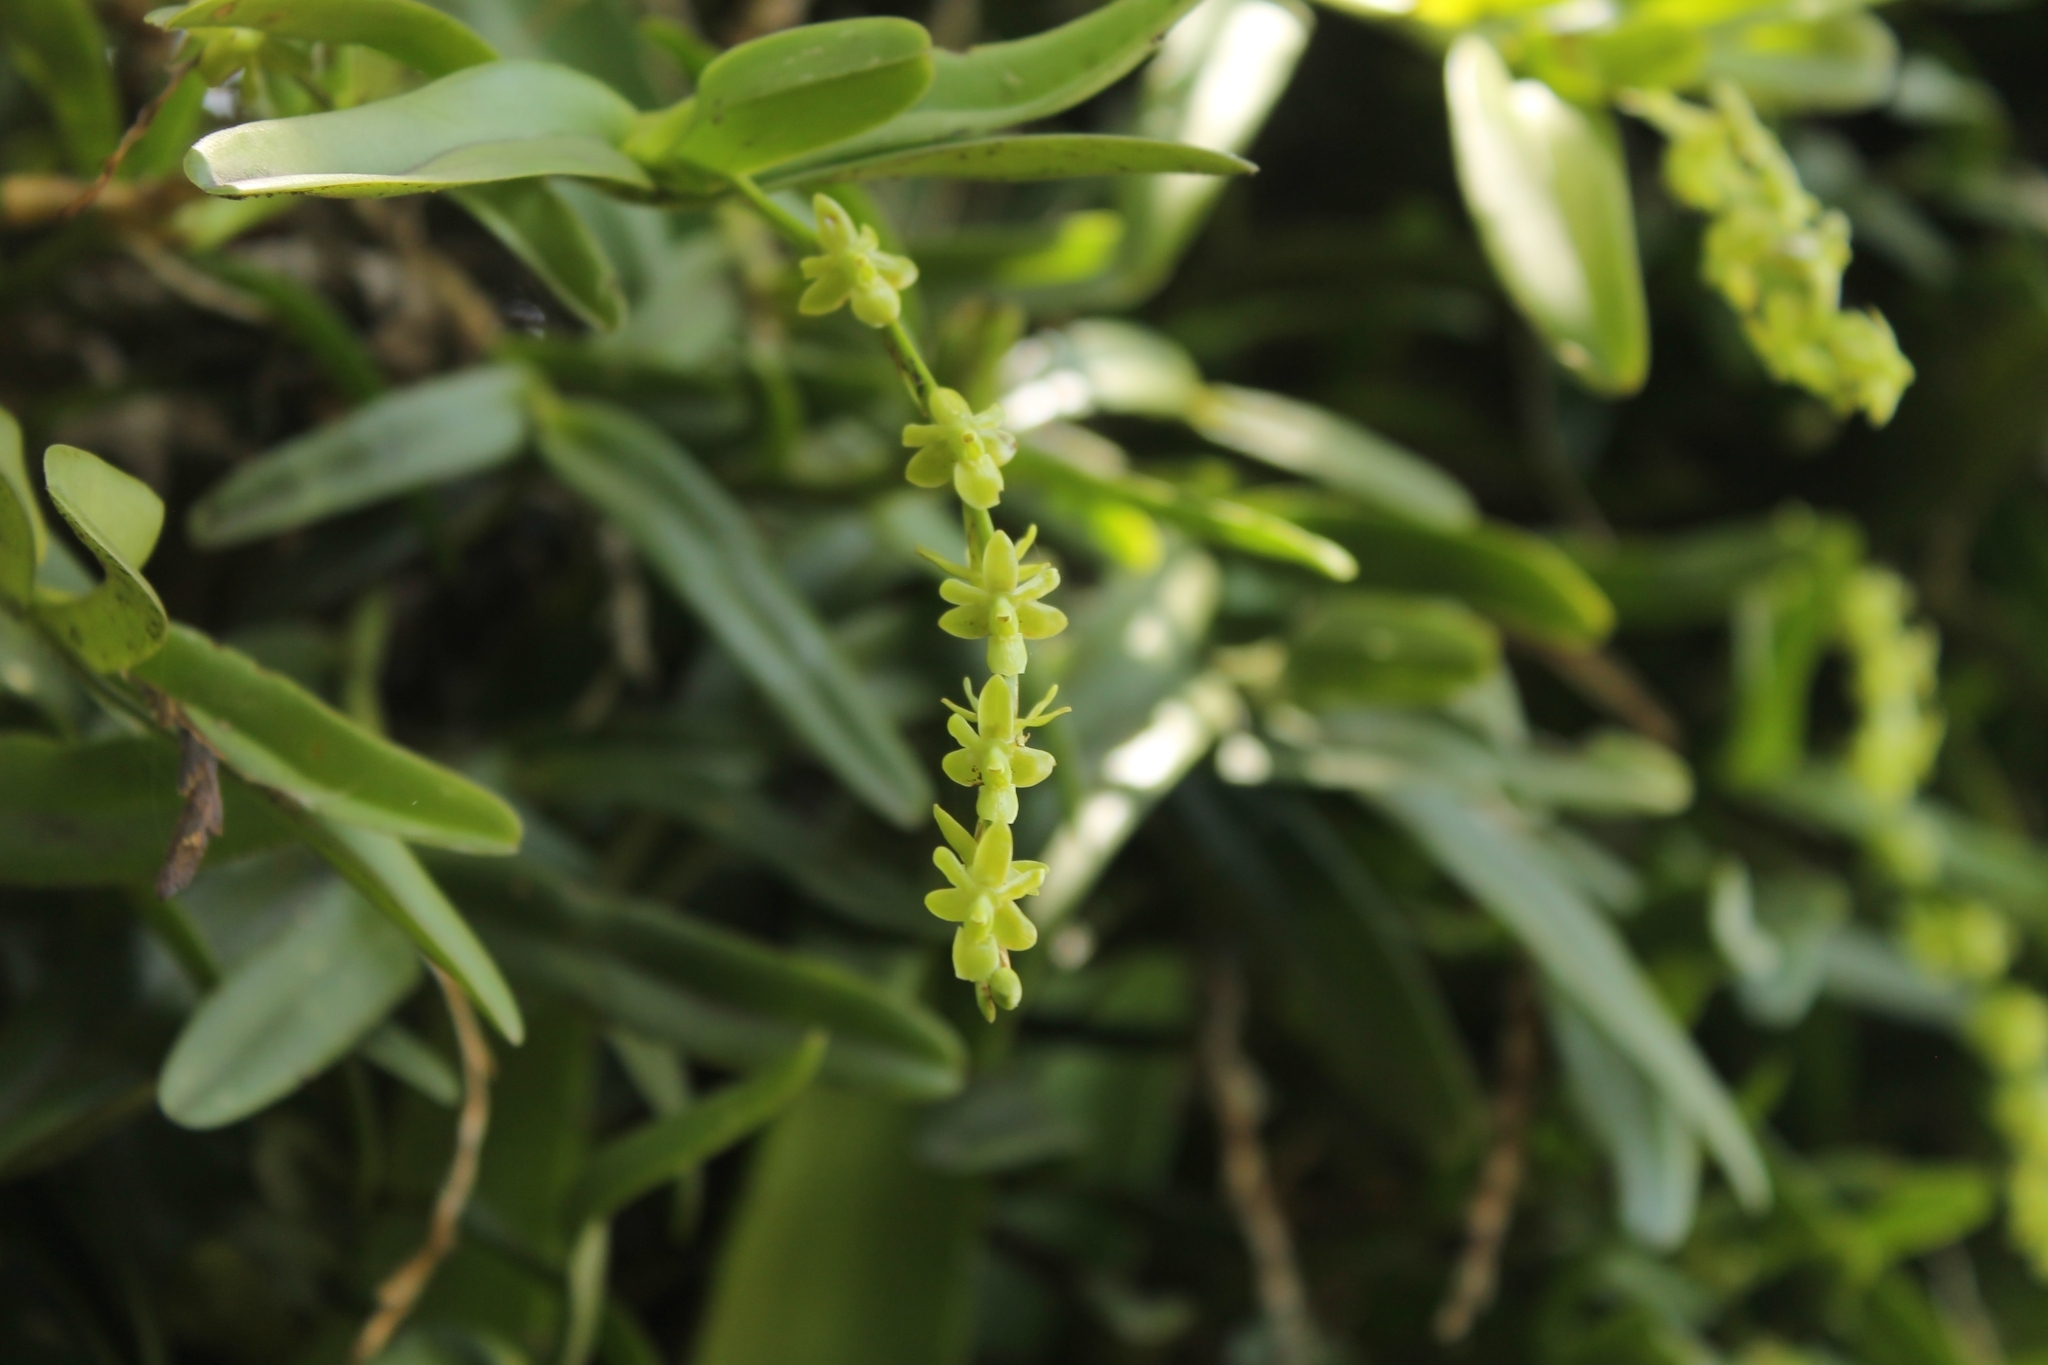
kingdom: Plantae
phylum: Tracheophyta
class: Liliopsida
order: Asparagales
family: Orchidaceae
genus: Epidendrum
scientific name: Epidendrum cardiophorum
